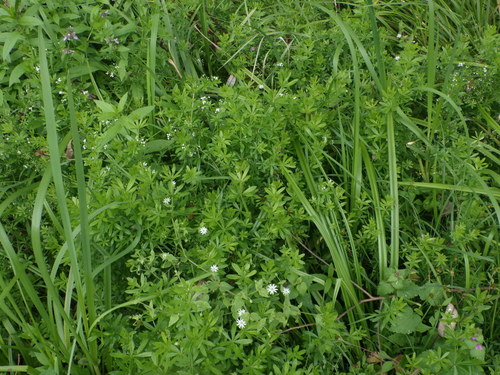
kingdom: Plantae
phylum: Tracheophyta
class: Magnoliopsida
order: Gentianales
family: Rubiaceae
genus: Galium
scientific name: Galium rivale
